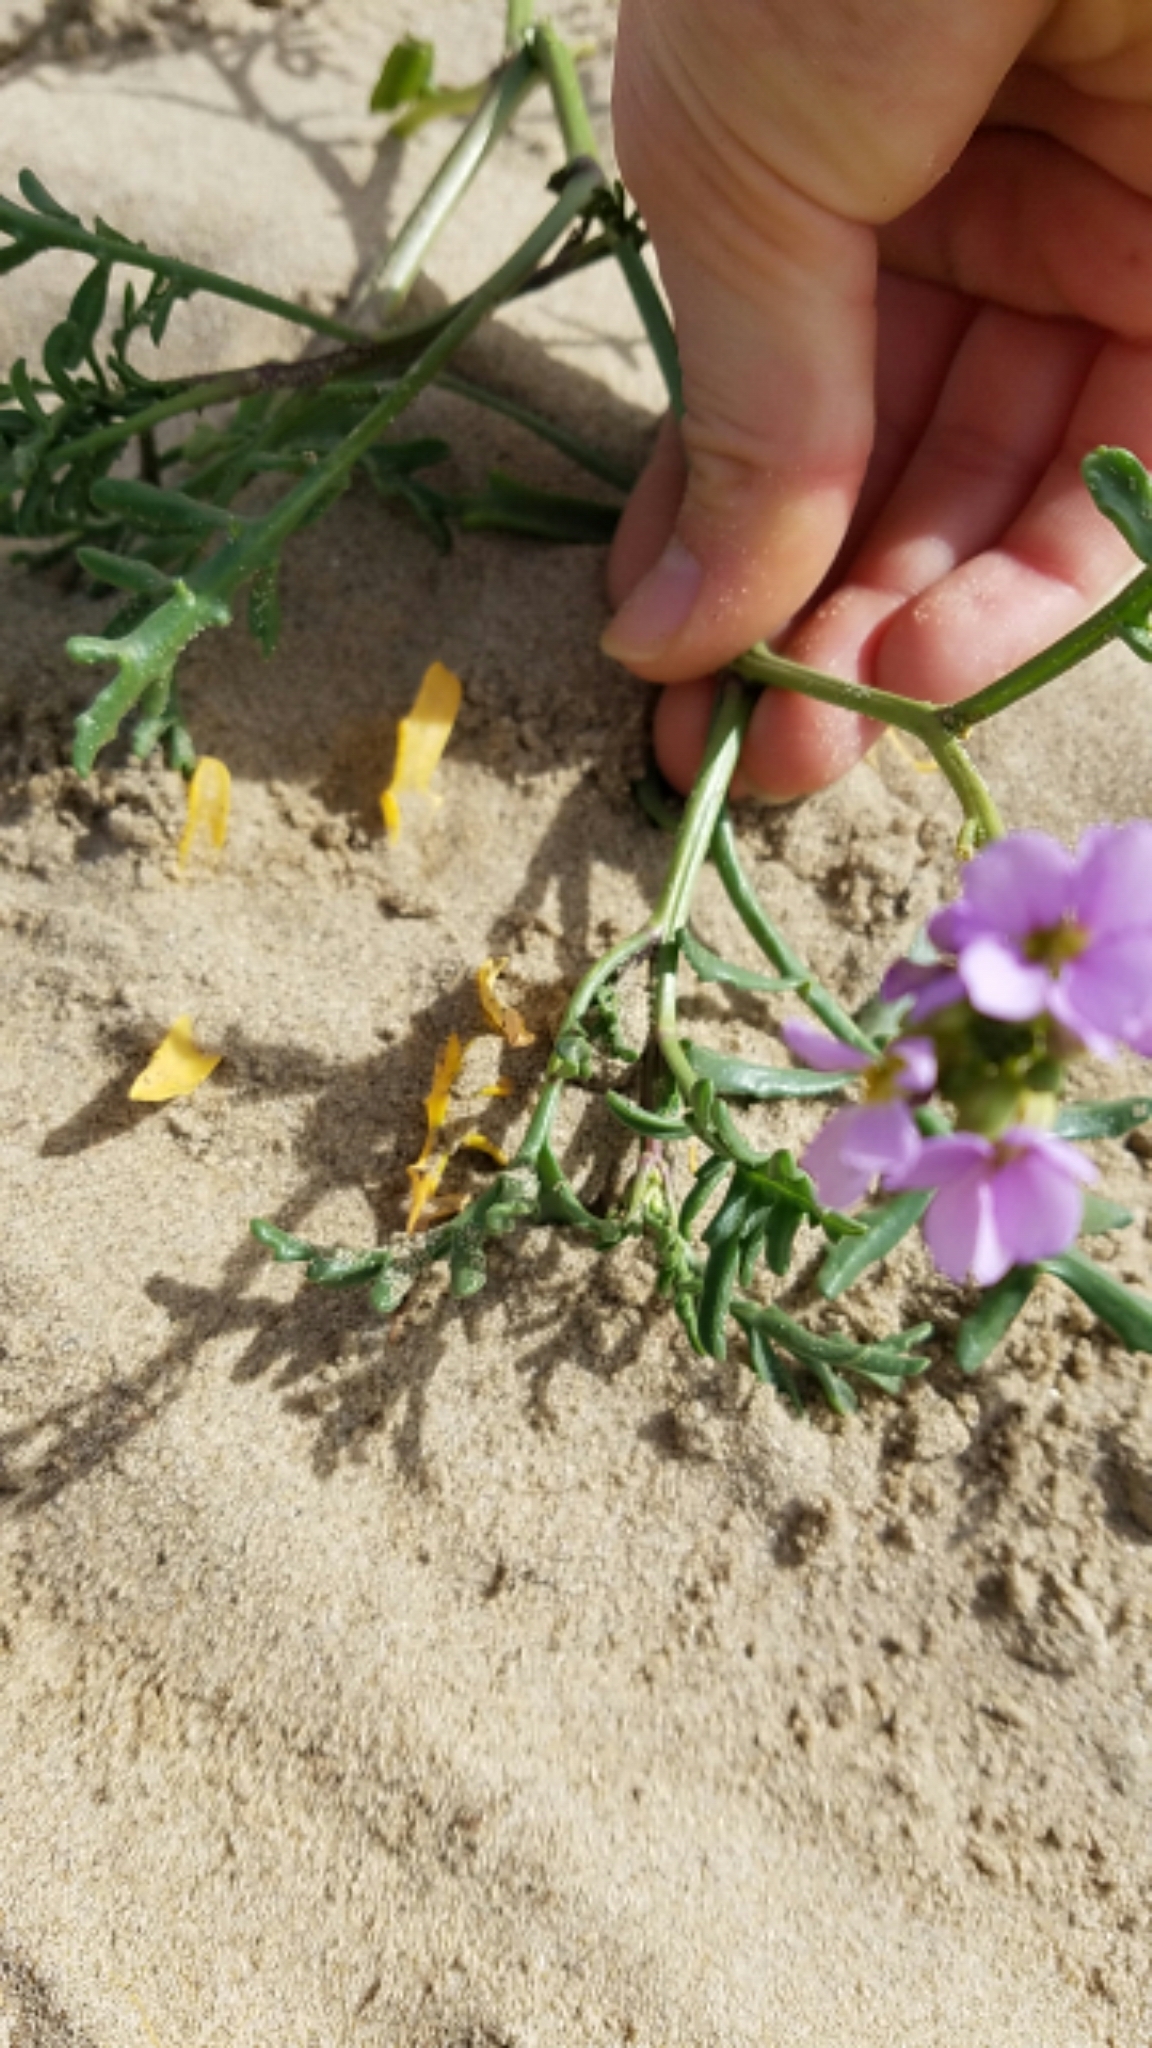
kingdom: Plantae
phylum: Tracheophyta
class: Magnoliopsida
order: Brassicales
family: Brassicaceae
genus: Cakile
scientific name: Cakile maritima
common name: Sea rocket
